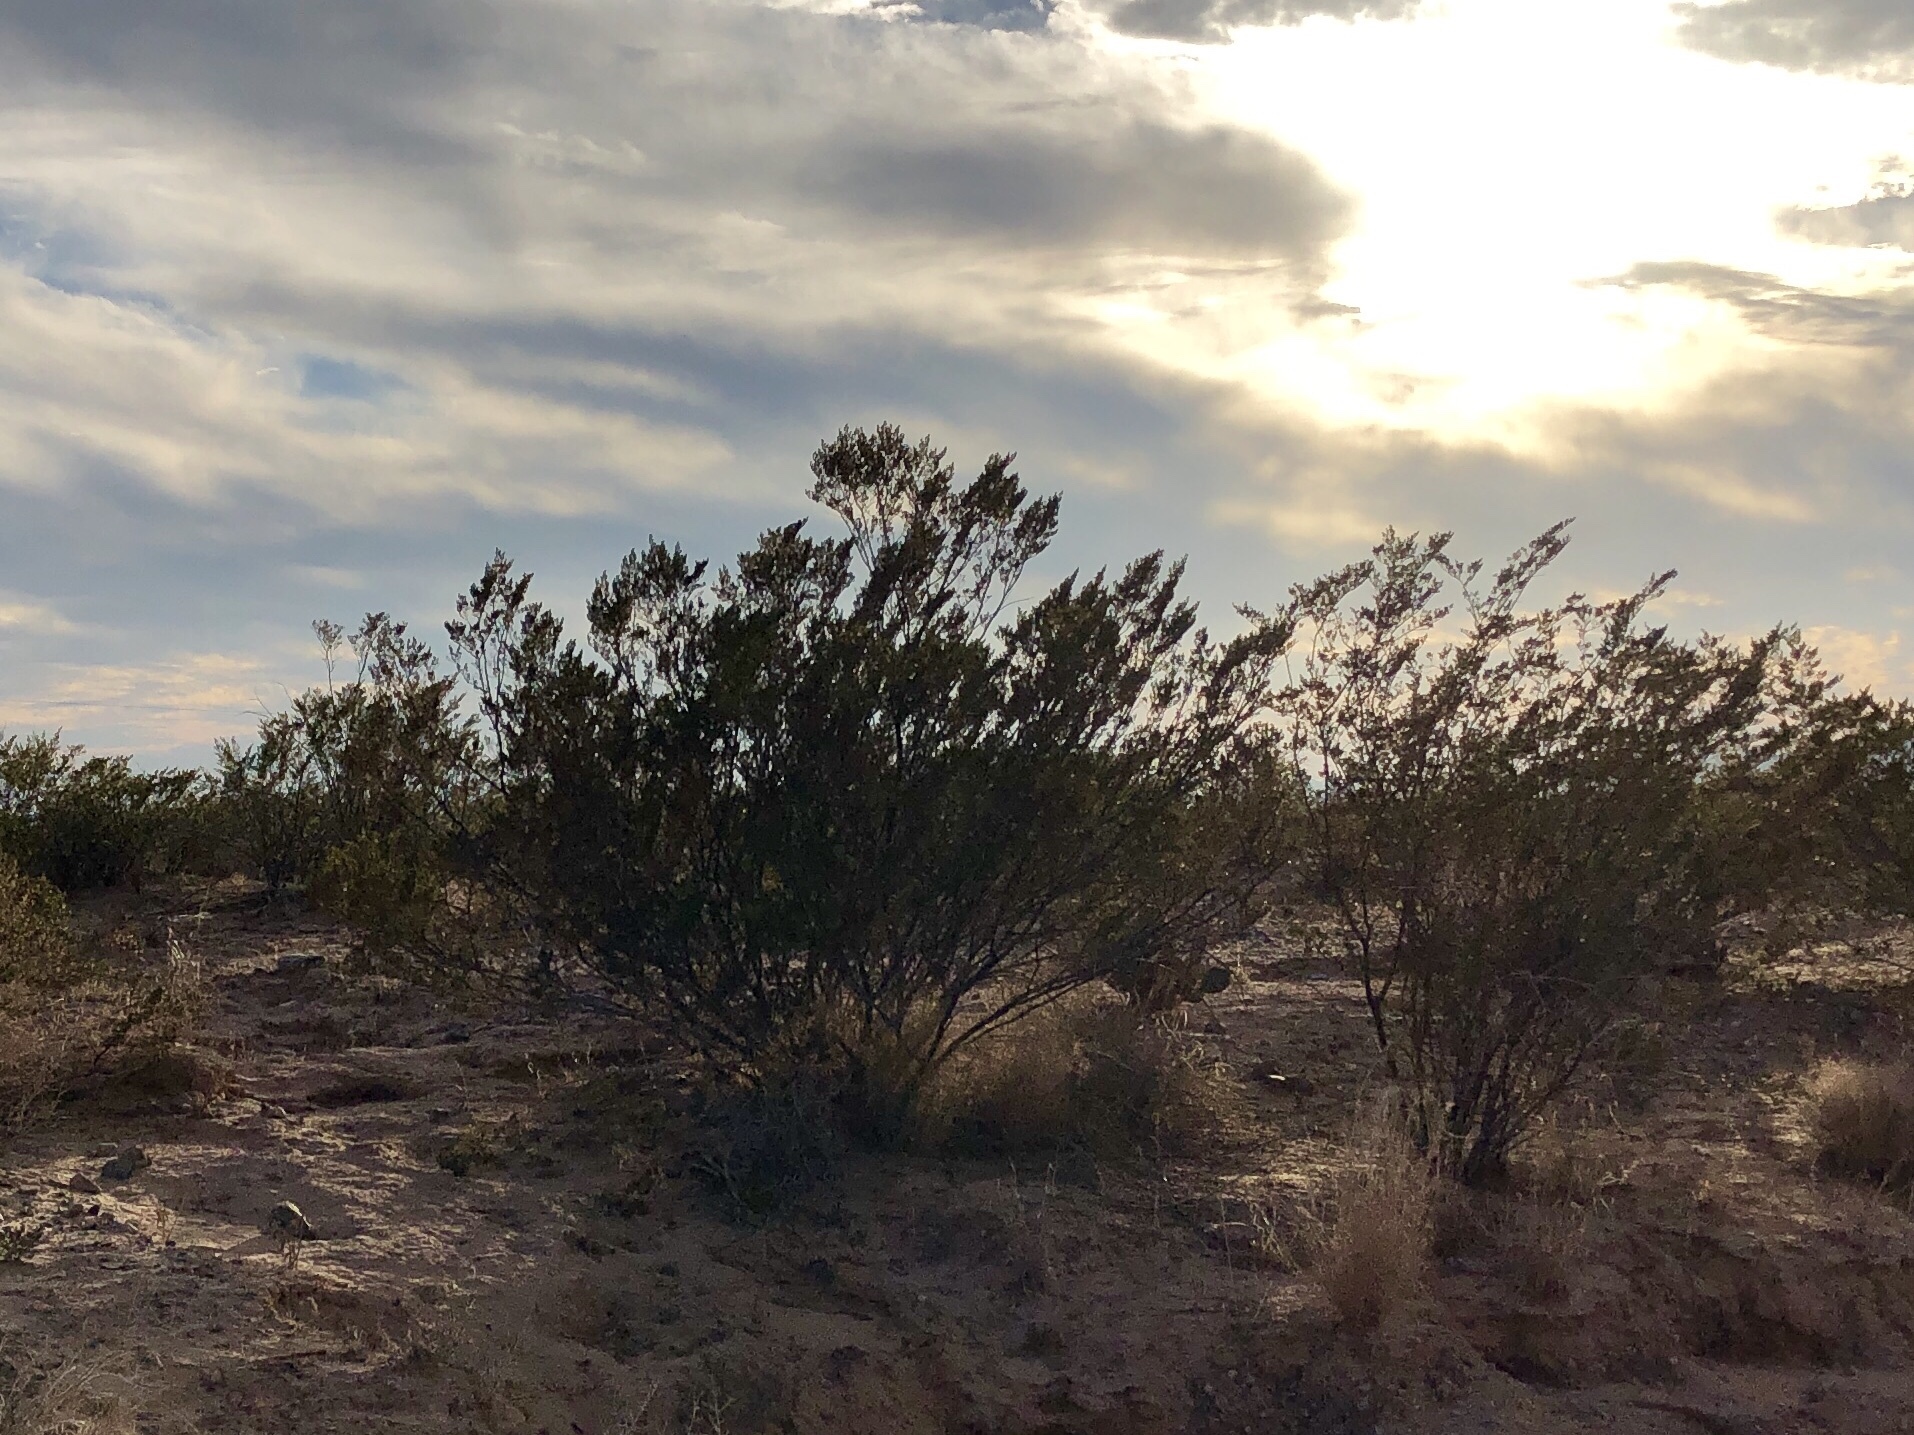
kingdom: Plantae
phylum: Tracheophyta
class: Magnoliopsida
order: Zygophyllales
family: Zygophyllaceae
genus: Larrea
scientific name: Larrea tridentata
